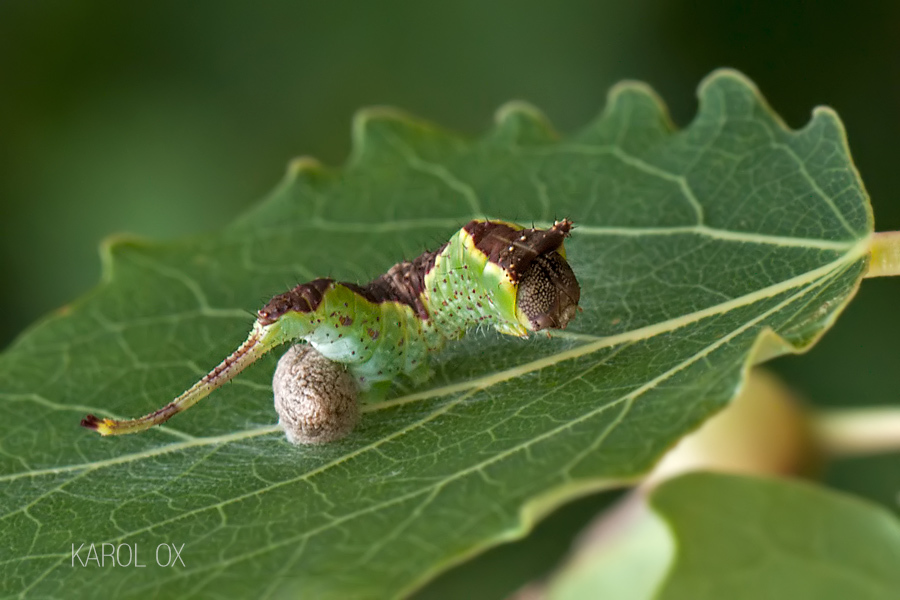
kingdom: Animalia
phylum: Arthropoda
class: Insecta
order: Lepidoptera
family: Notodontidae
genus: Furcula
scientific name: Furcula bifida
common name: Poplar kitten
